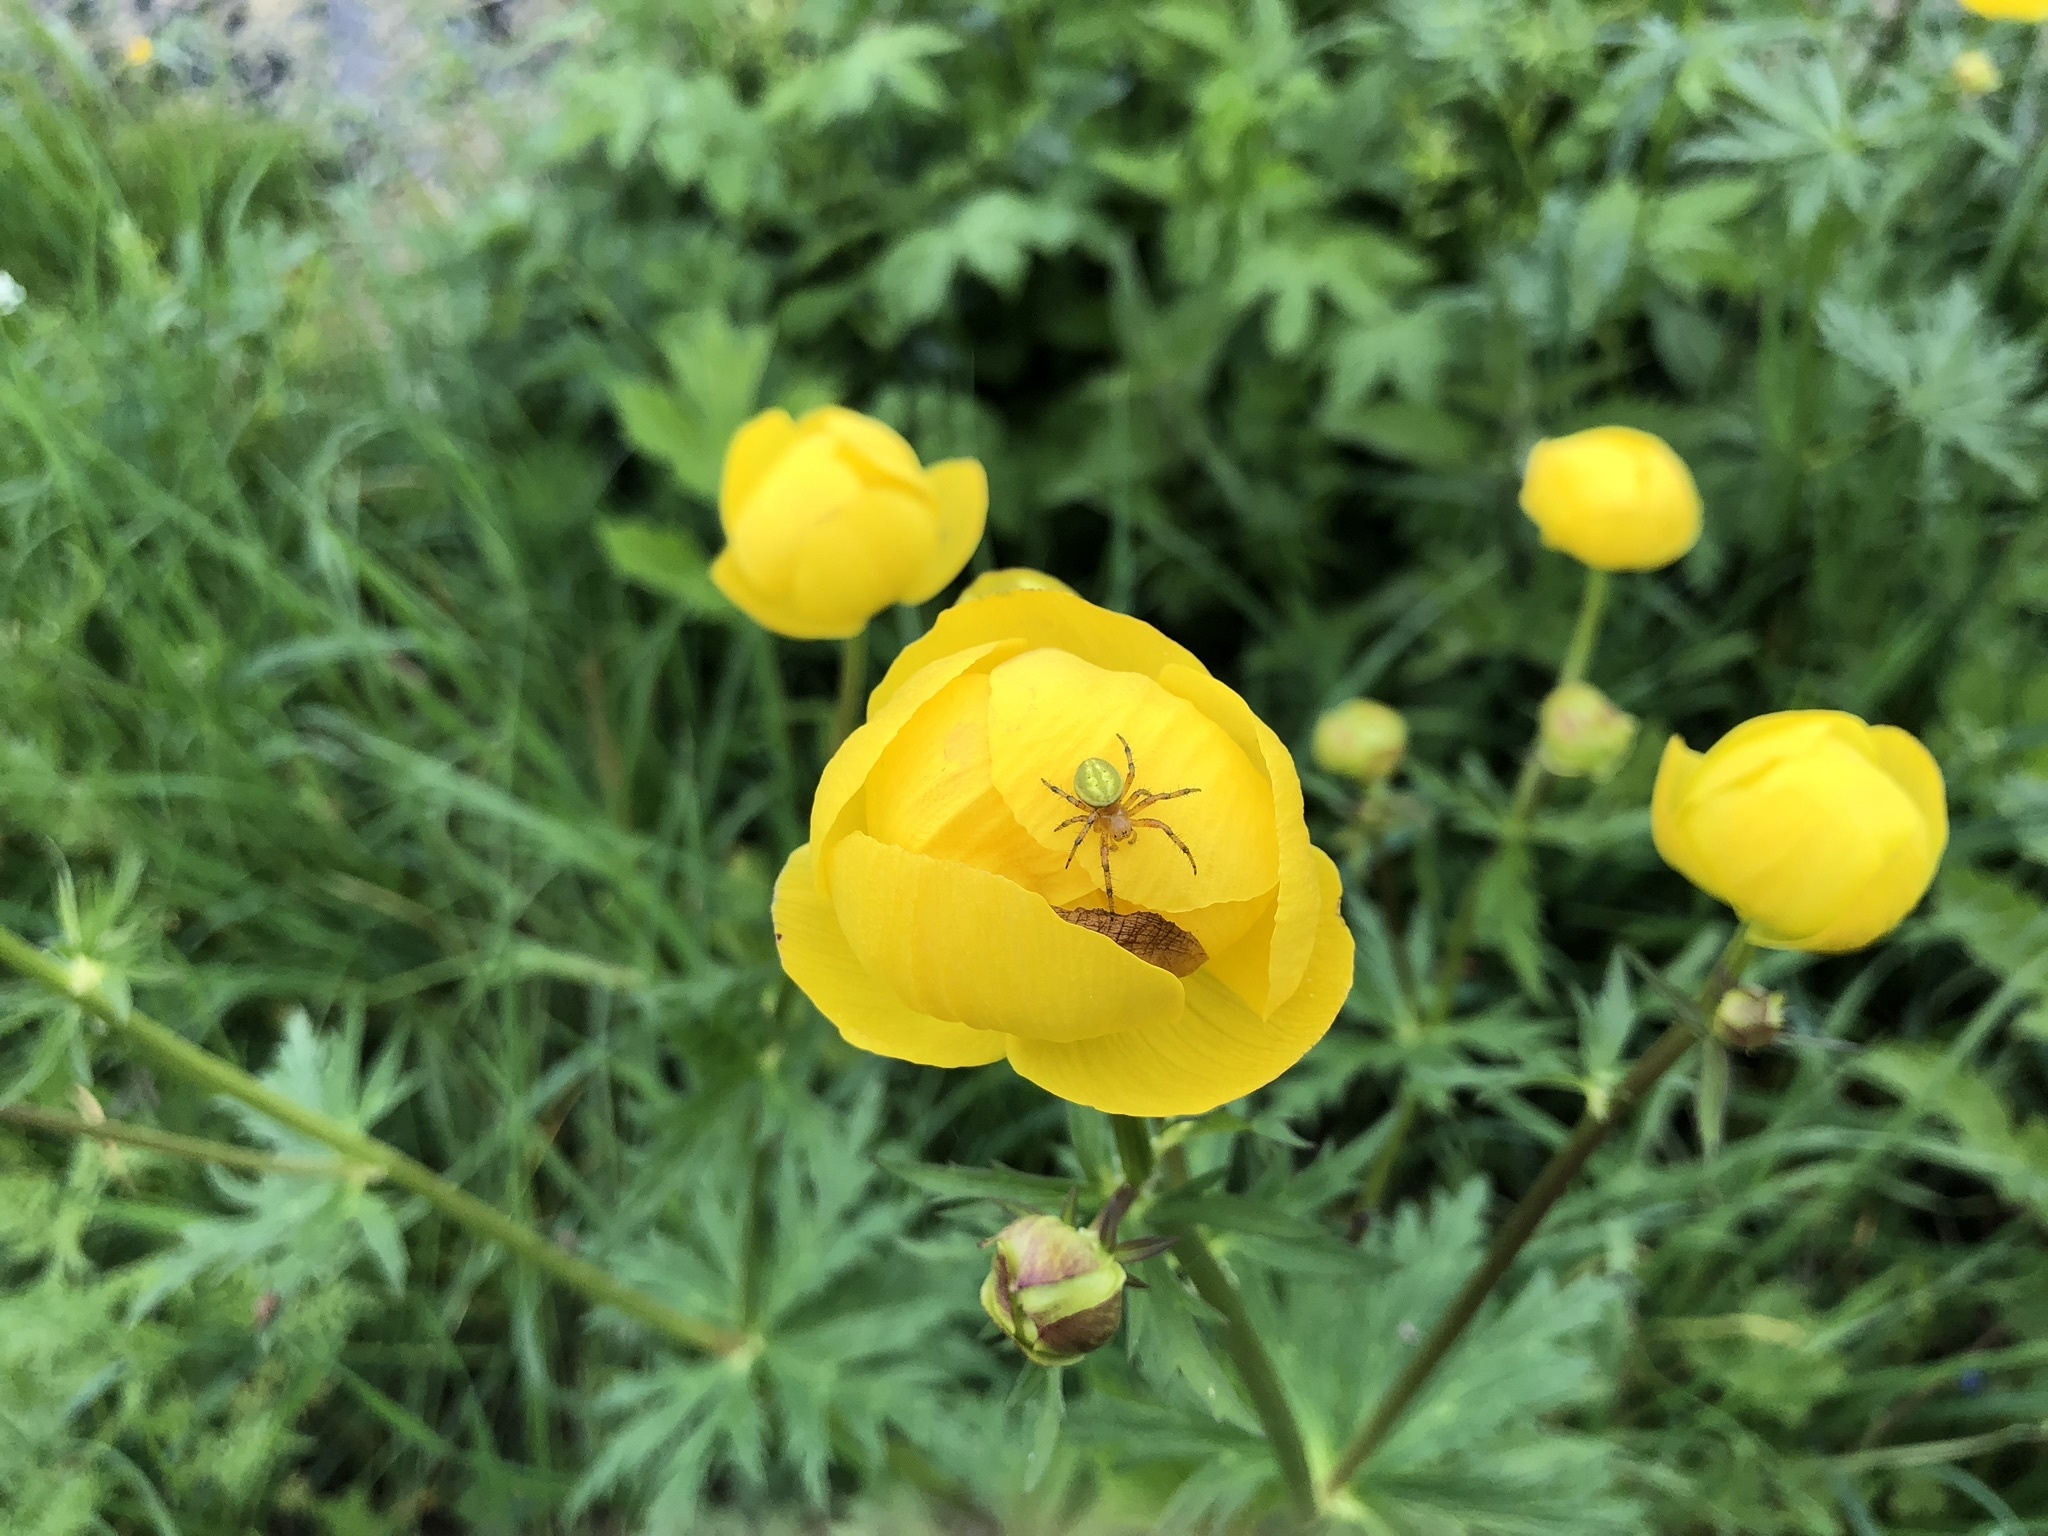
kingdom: Plantae
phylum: Tracheophyta
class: Magnoliopsida
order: Ranunculales
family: Ranunculaceae
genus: Trollius
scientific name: Trollius europaeus
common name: European globeflower
